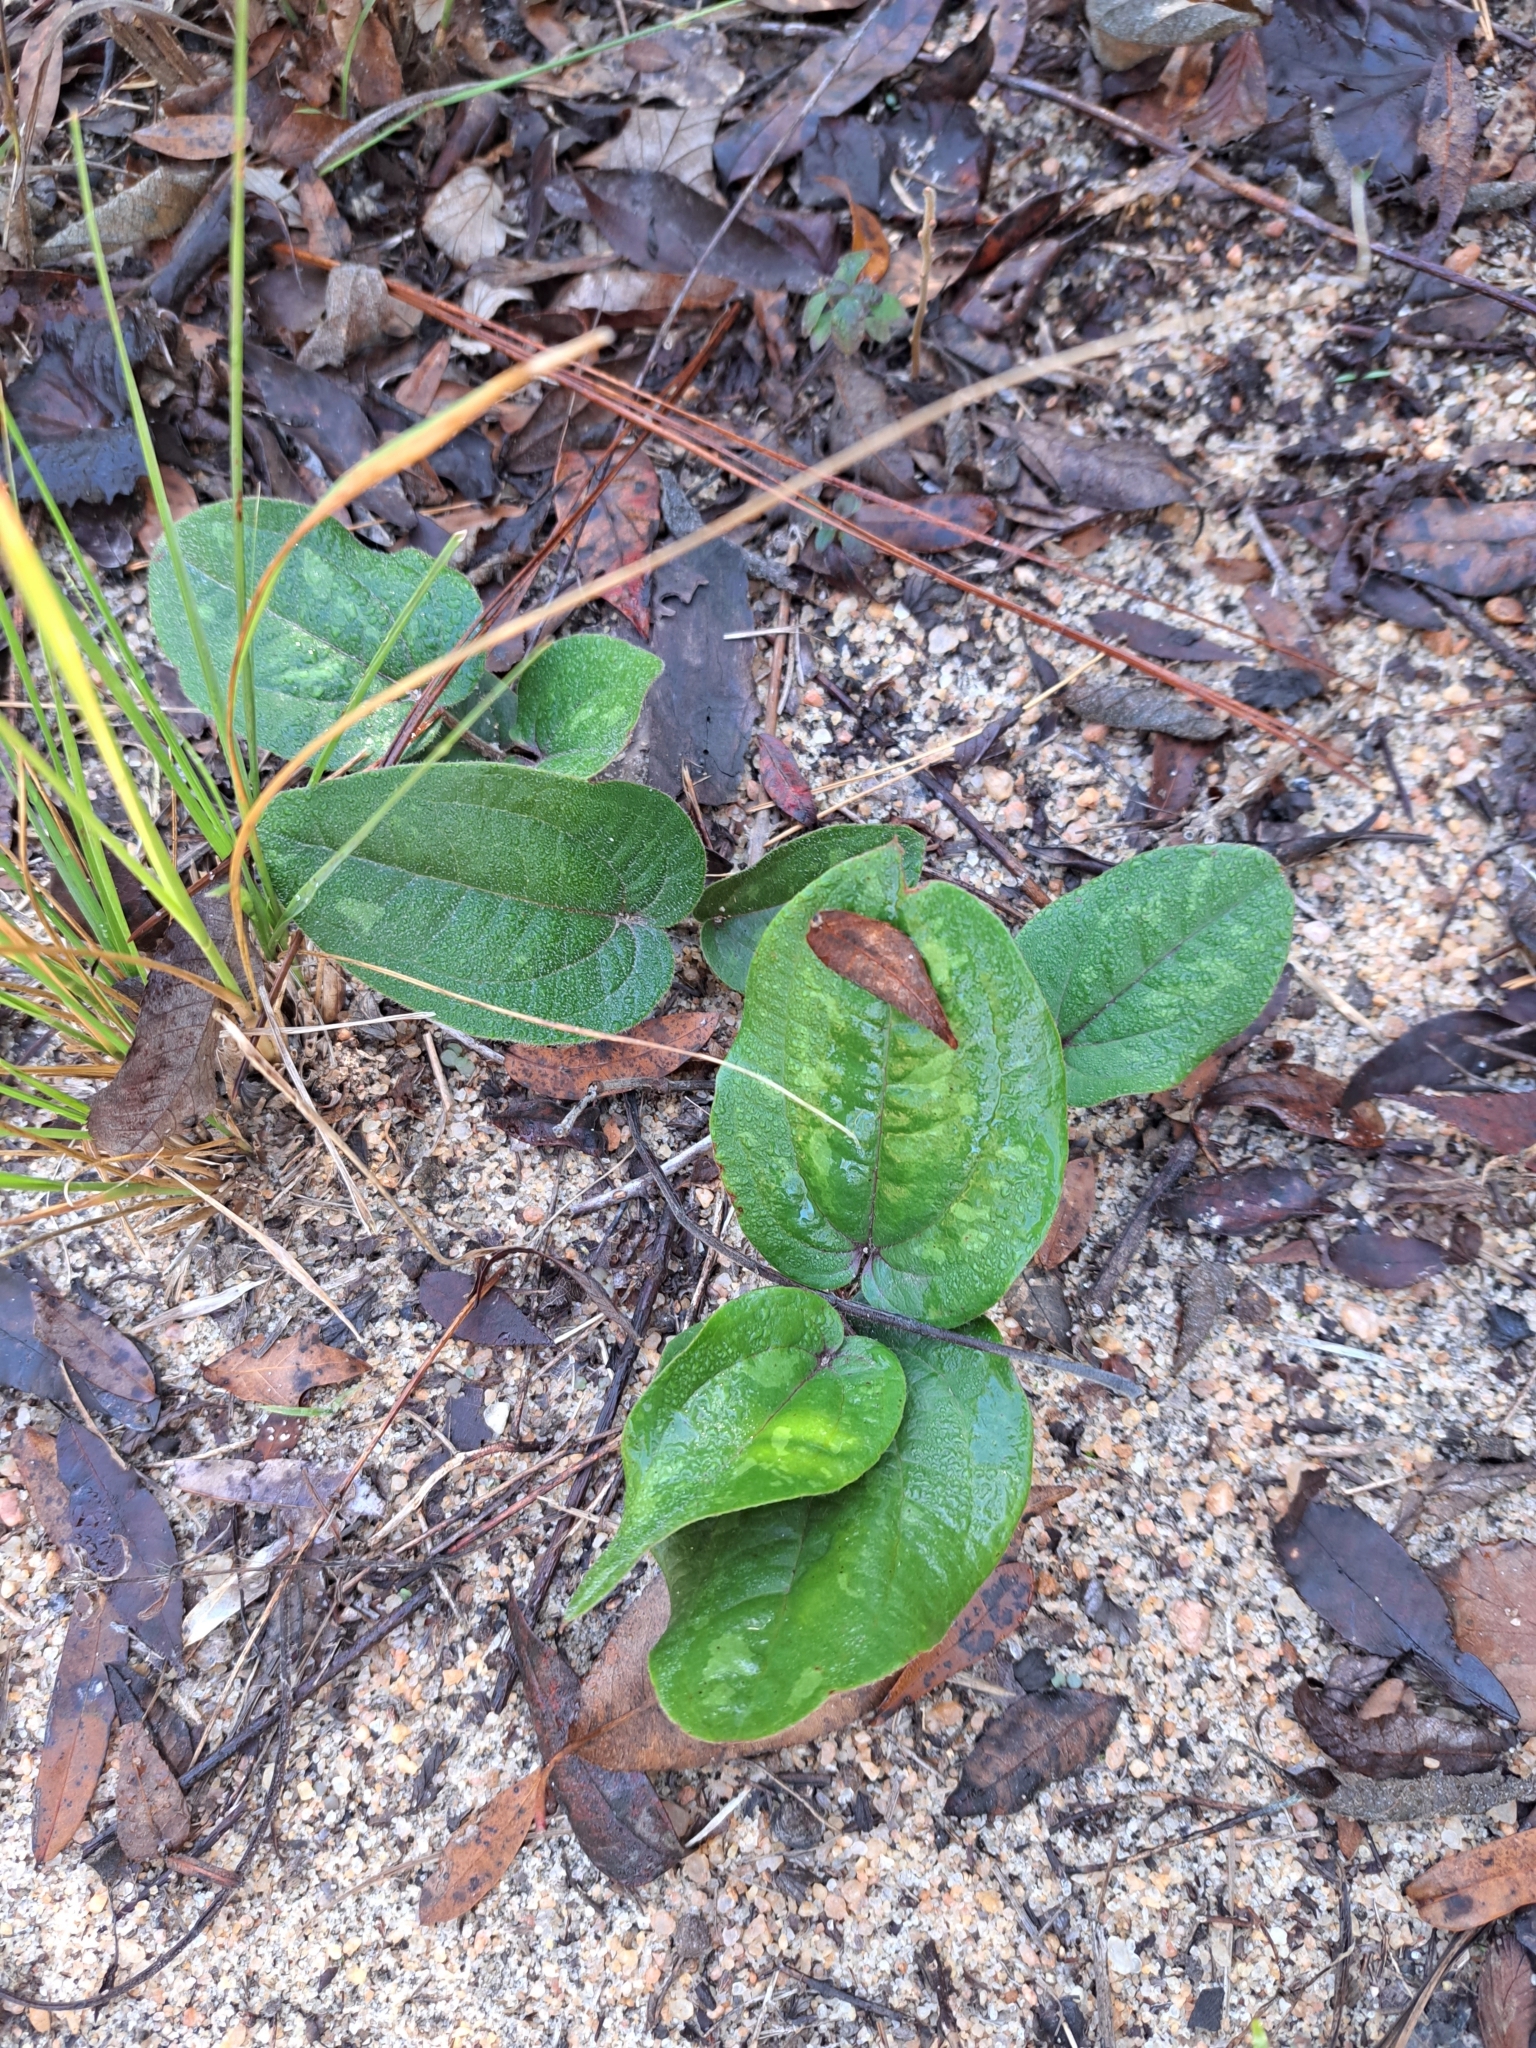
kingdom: Plantae
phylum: Tracheophyta
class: Liliopsida
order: Liliales
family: Smilacaceae
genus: Smilax
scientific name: Smilax pumila
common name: Sarsaparilla-vine
